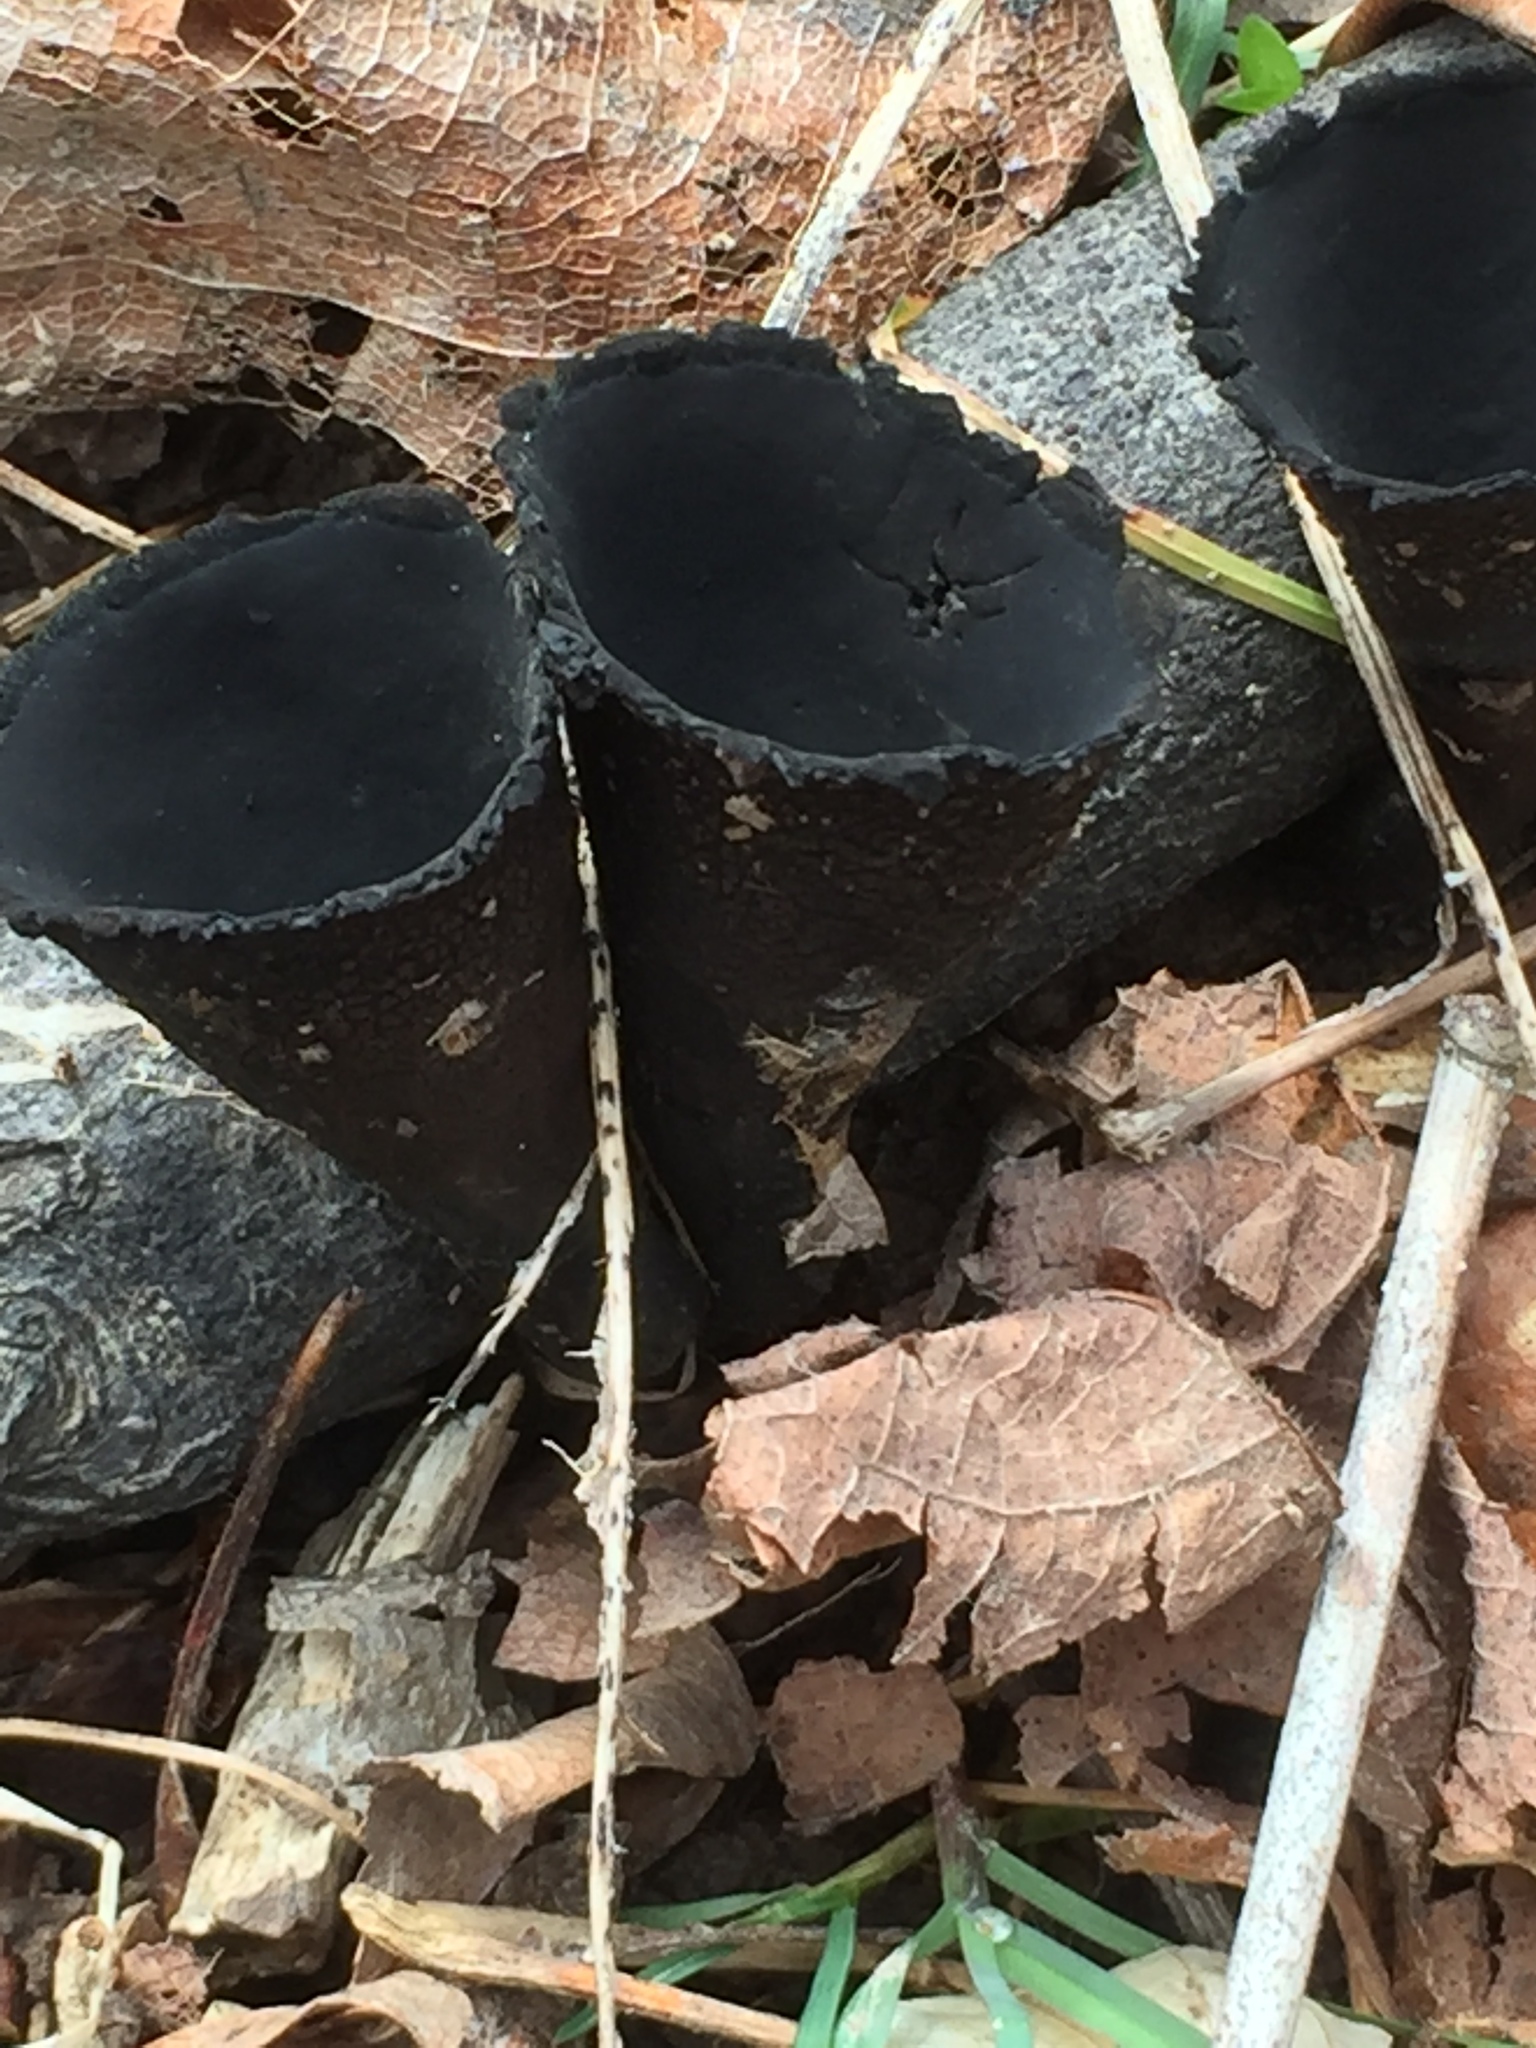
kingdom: Fungi
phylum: Ascomycota
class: Pezizomycetes
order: Pezizales
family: Sarcosomataceae
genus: Urnula
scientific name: Urnula craterium
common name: Devil's urn
